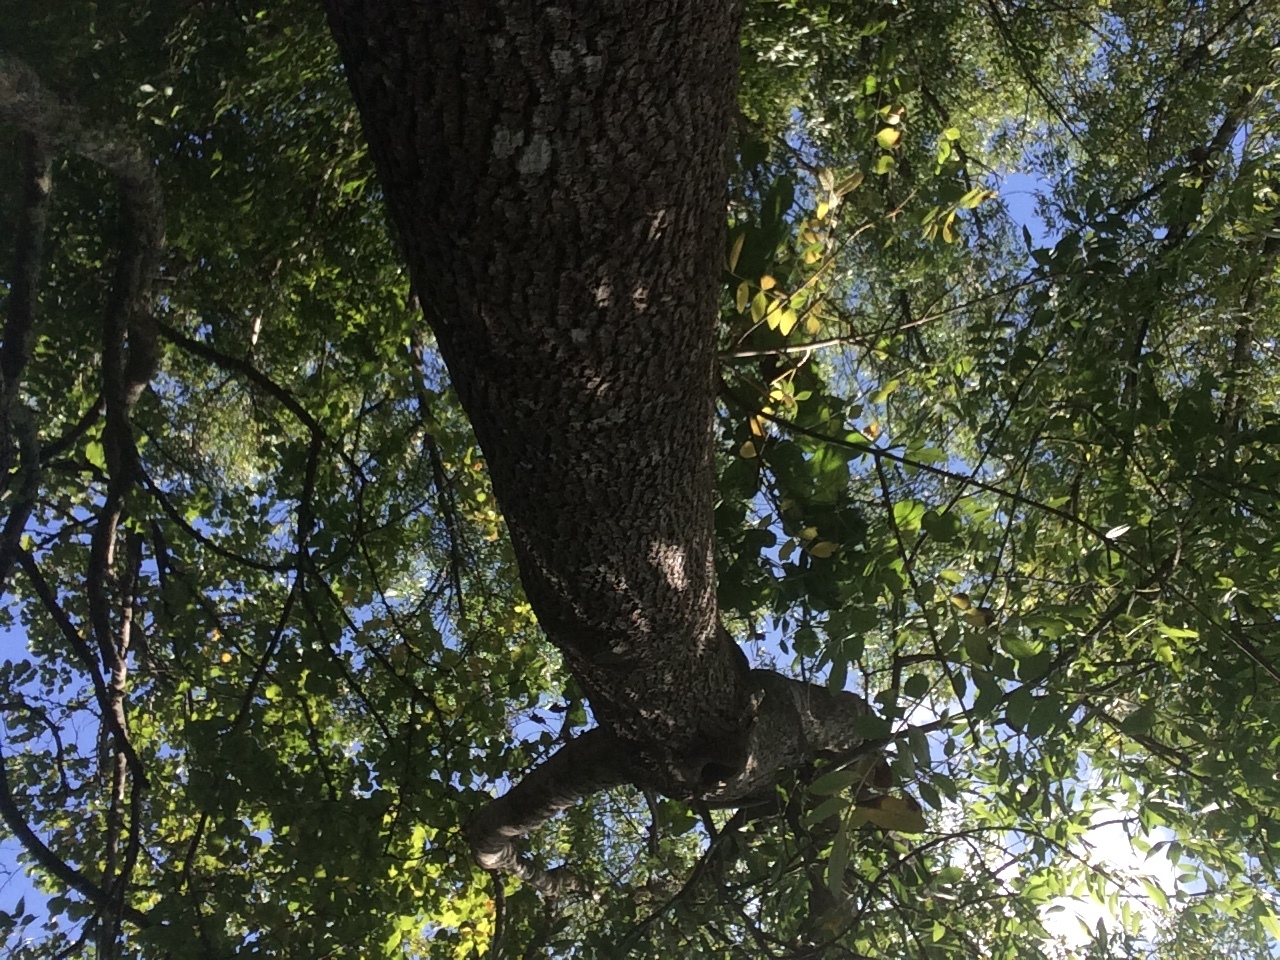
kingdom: Plantae
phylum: Tracheophyta
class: Magnoliopsida
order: Lamiales
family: Oleaceae
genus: Fraxinus
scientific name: Fraxinus angustifolia
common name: Narrow-leafed ash
